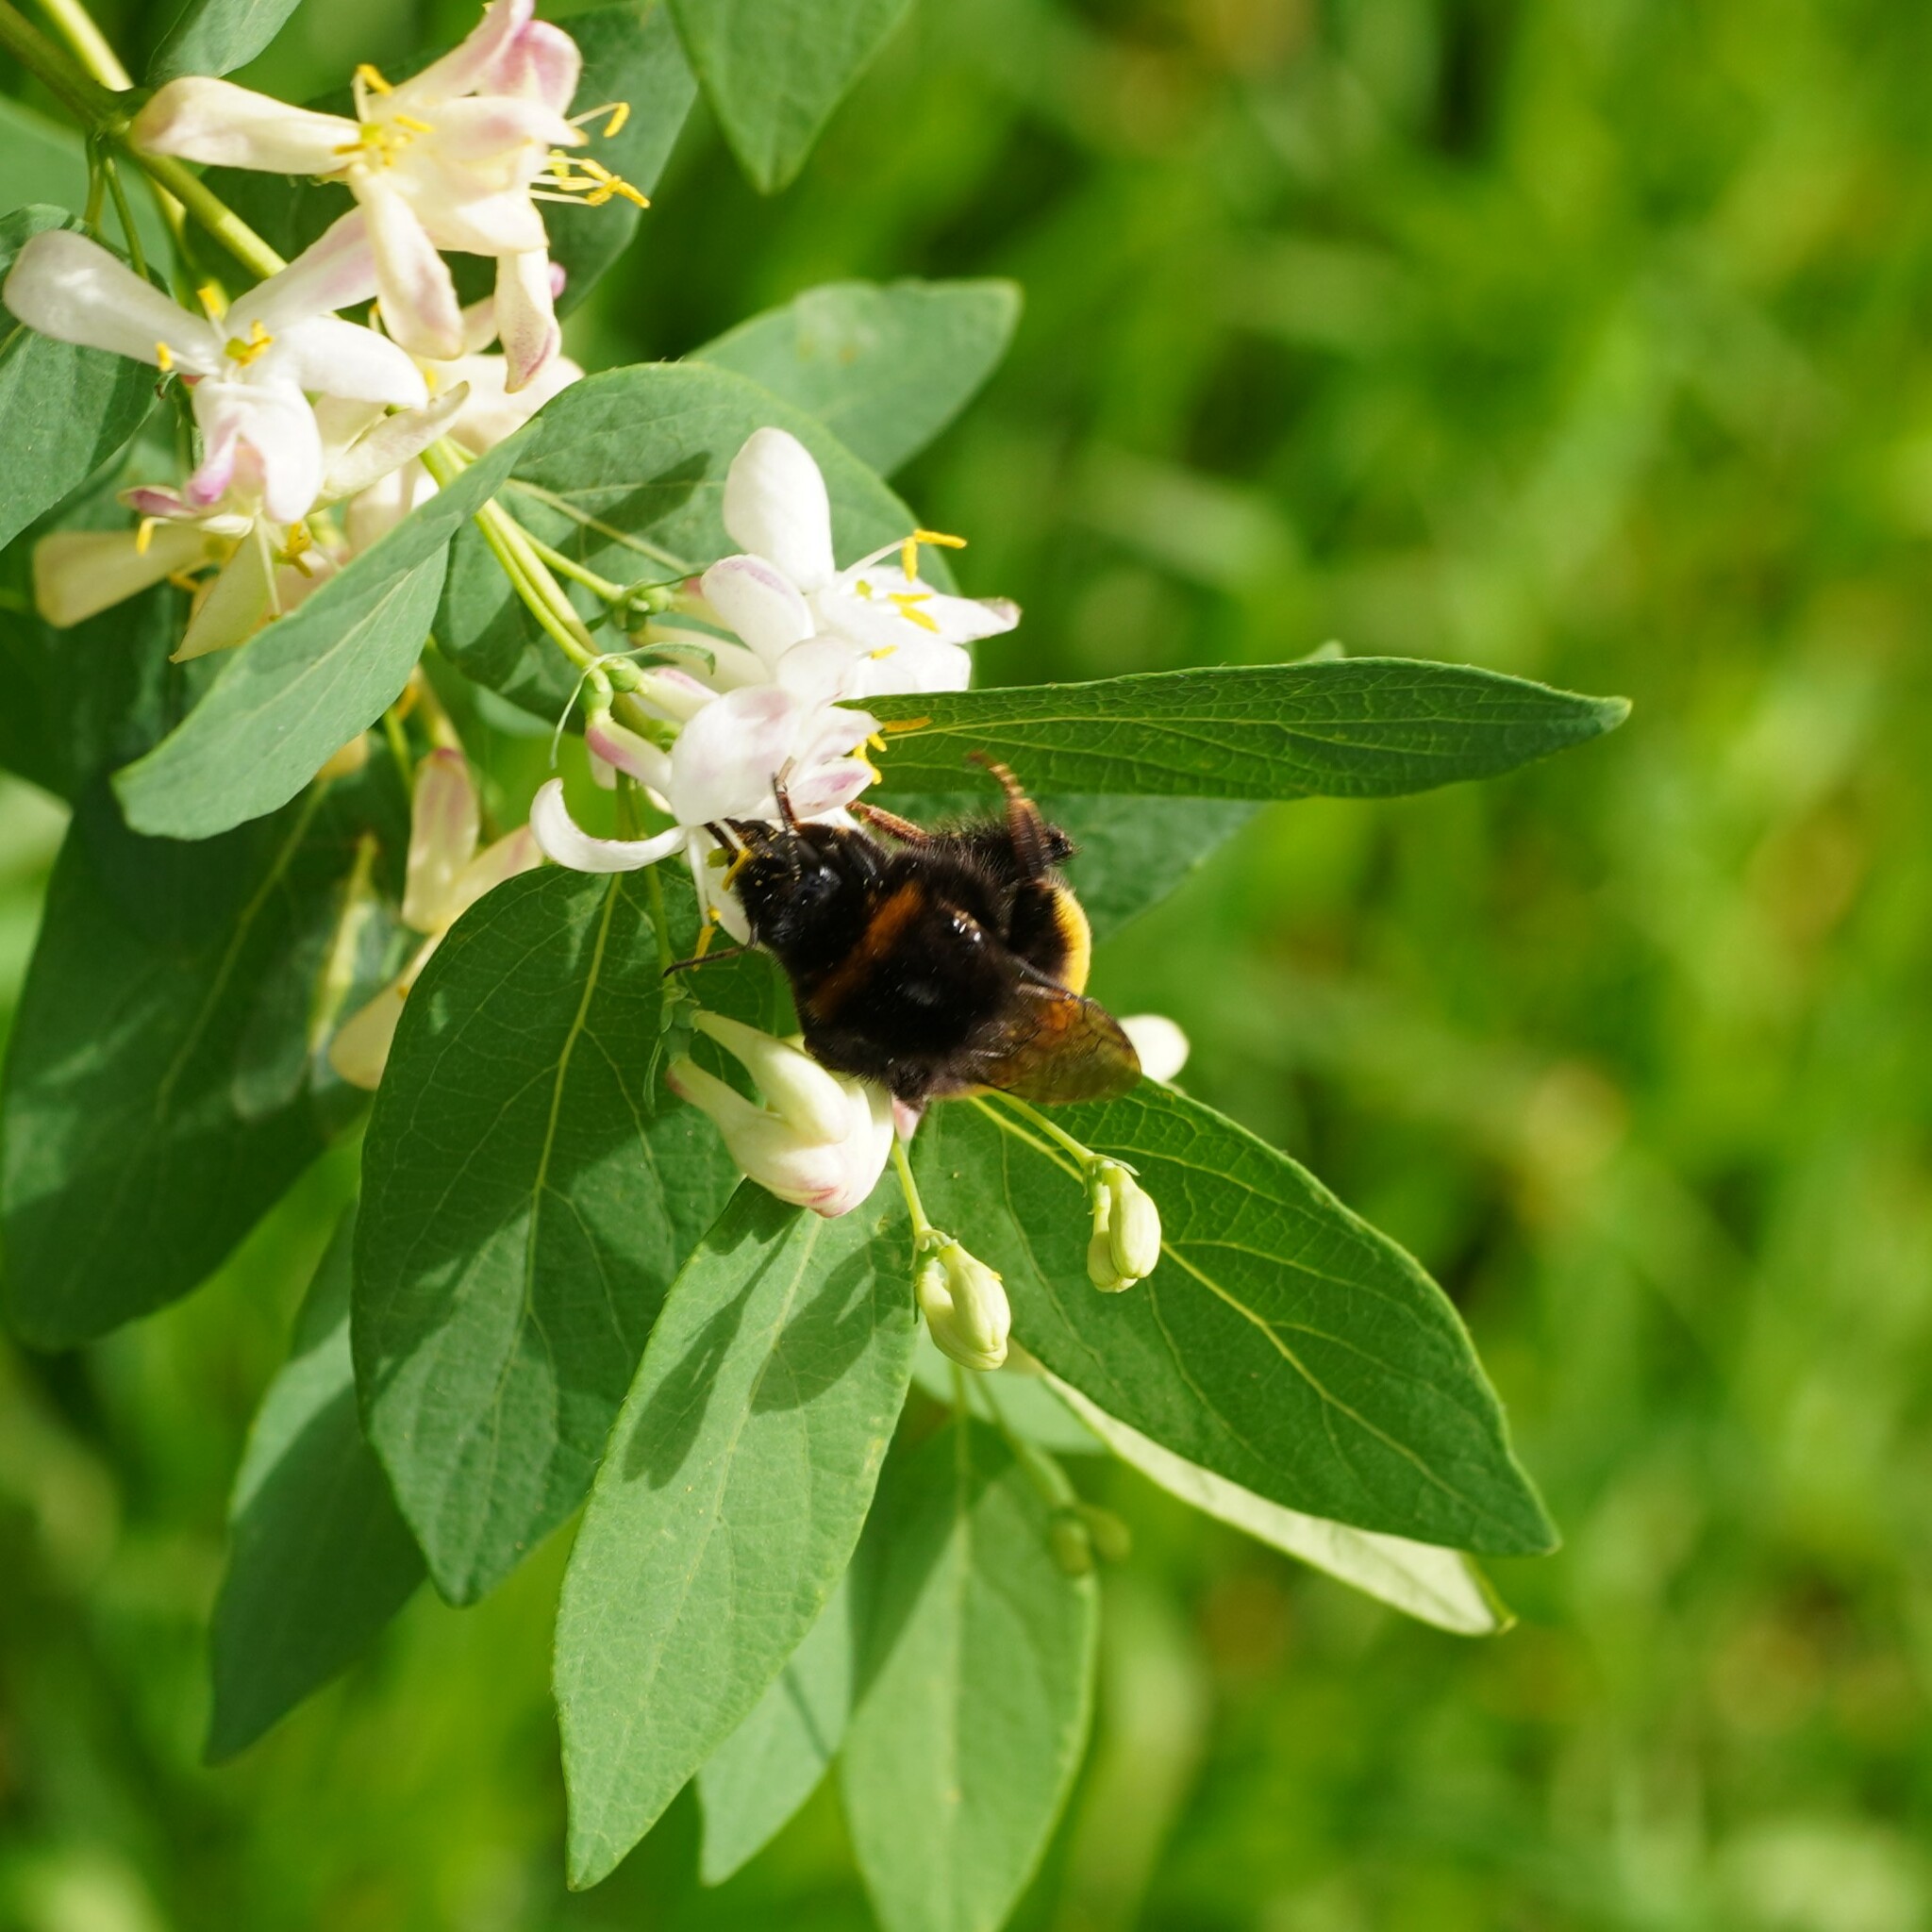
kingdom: Animalia
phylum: Arthropoda
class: Insecta
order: Hymenoptera
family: Apidae
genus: Bombus
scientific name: Bombus
